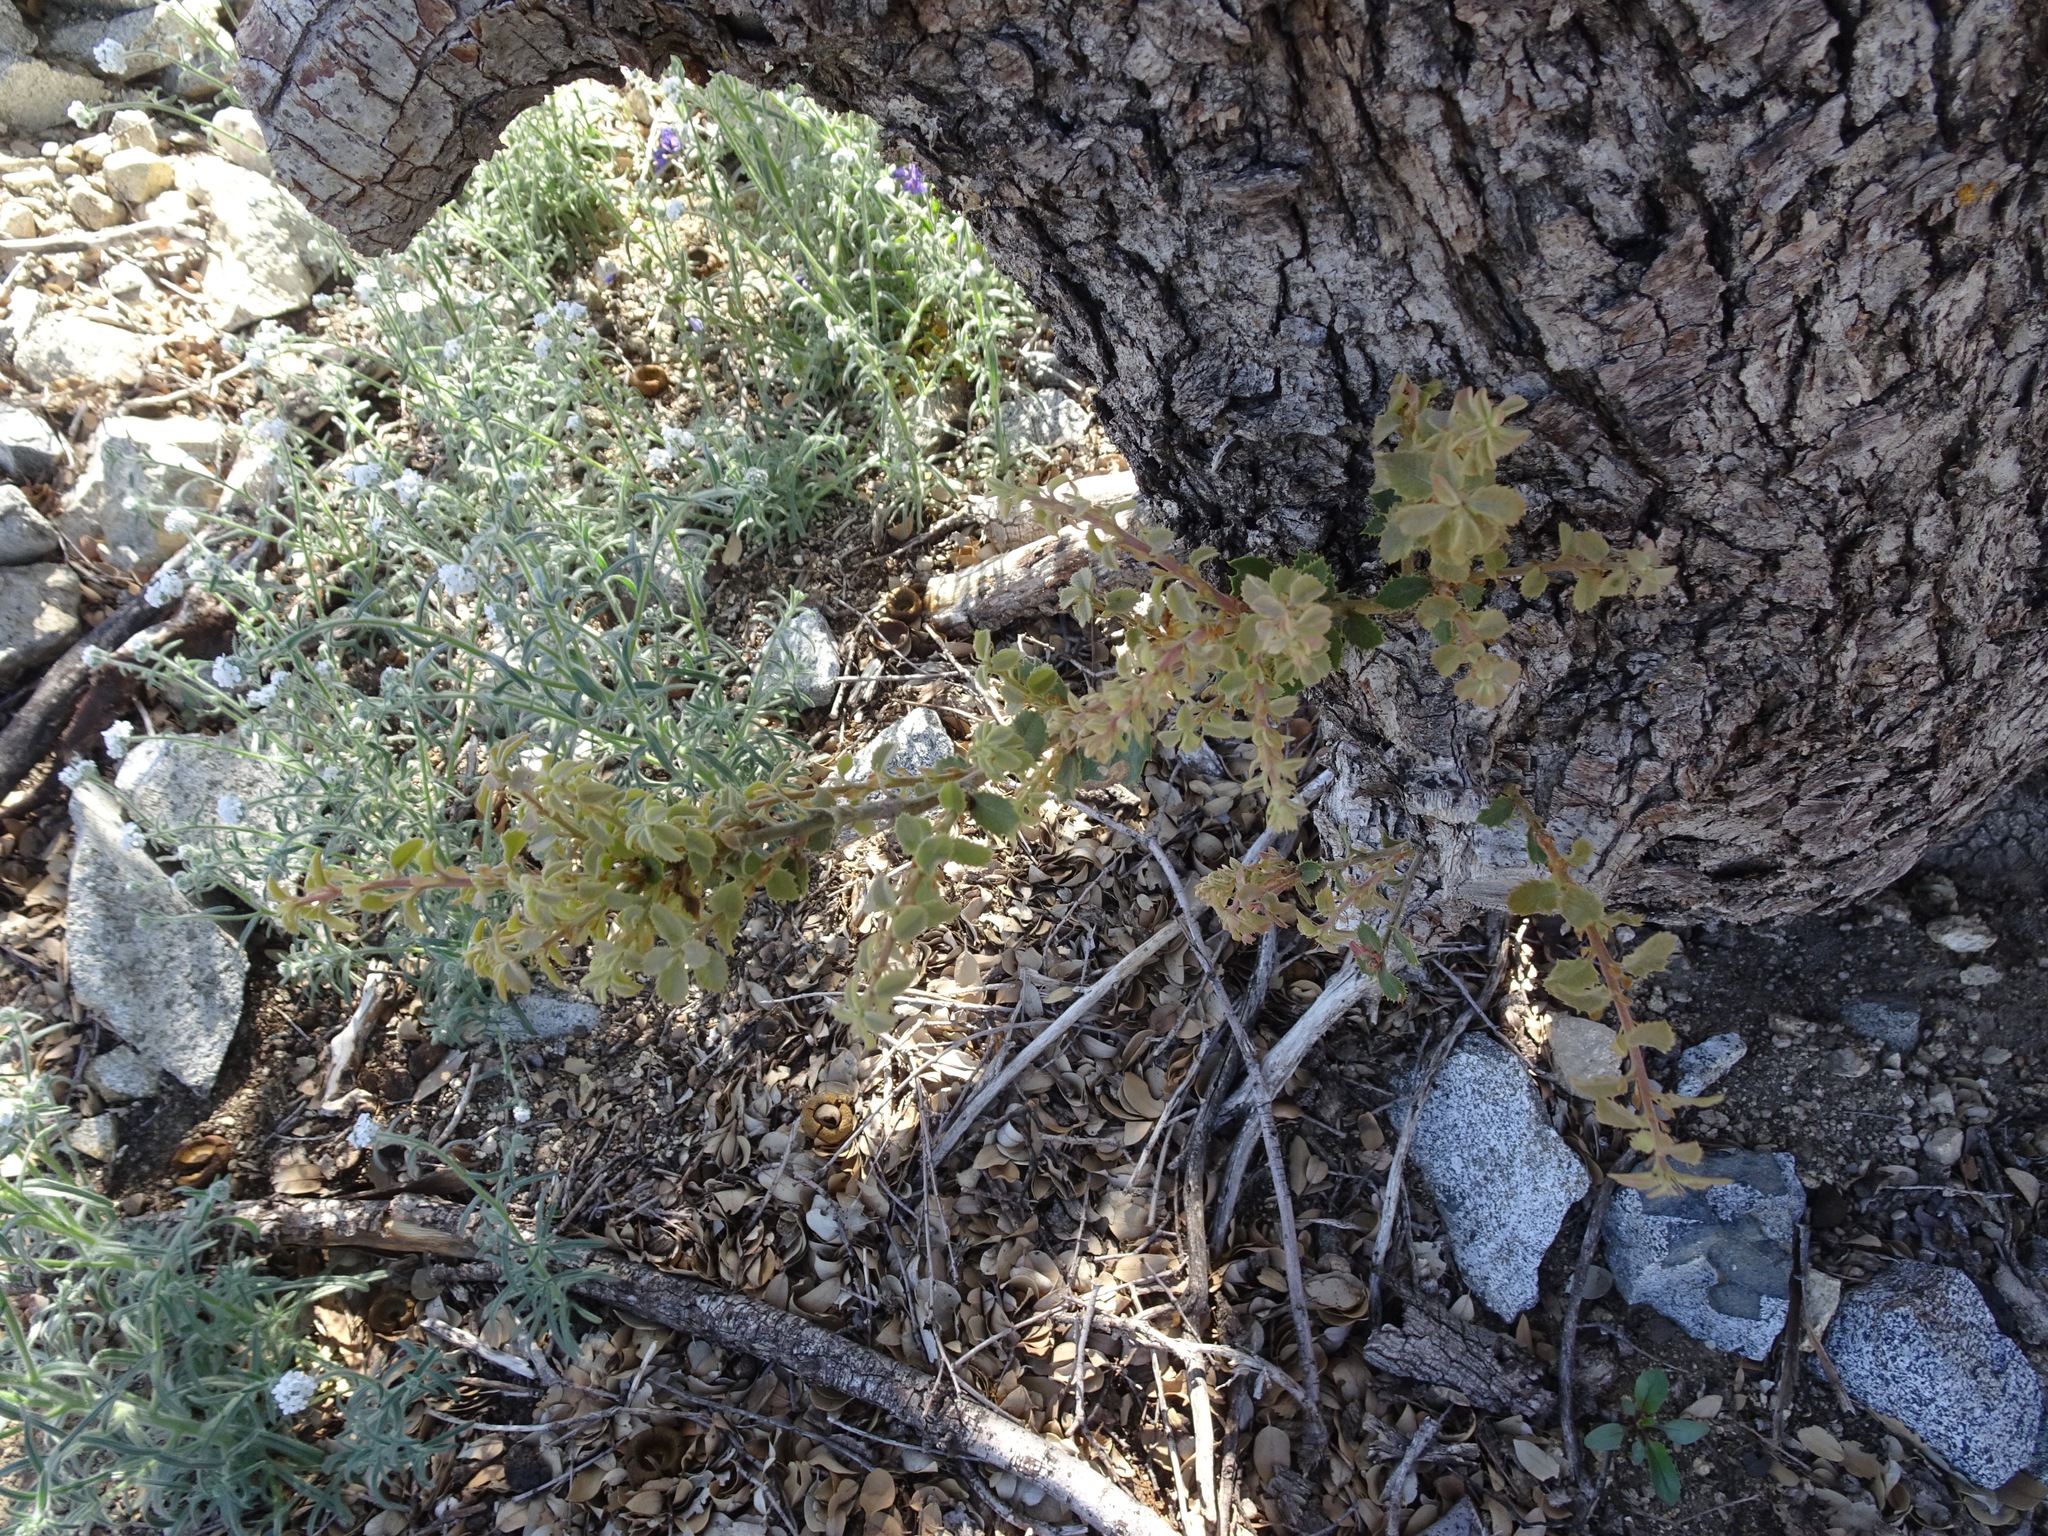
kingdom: Plantae
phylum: Tracheophyta
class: Magnoliopsida
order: Fagales
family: Fagaceae
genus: Quercus
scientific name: Quercus chrysolepis
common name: Canyon live oak
